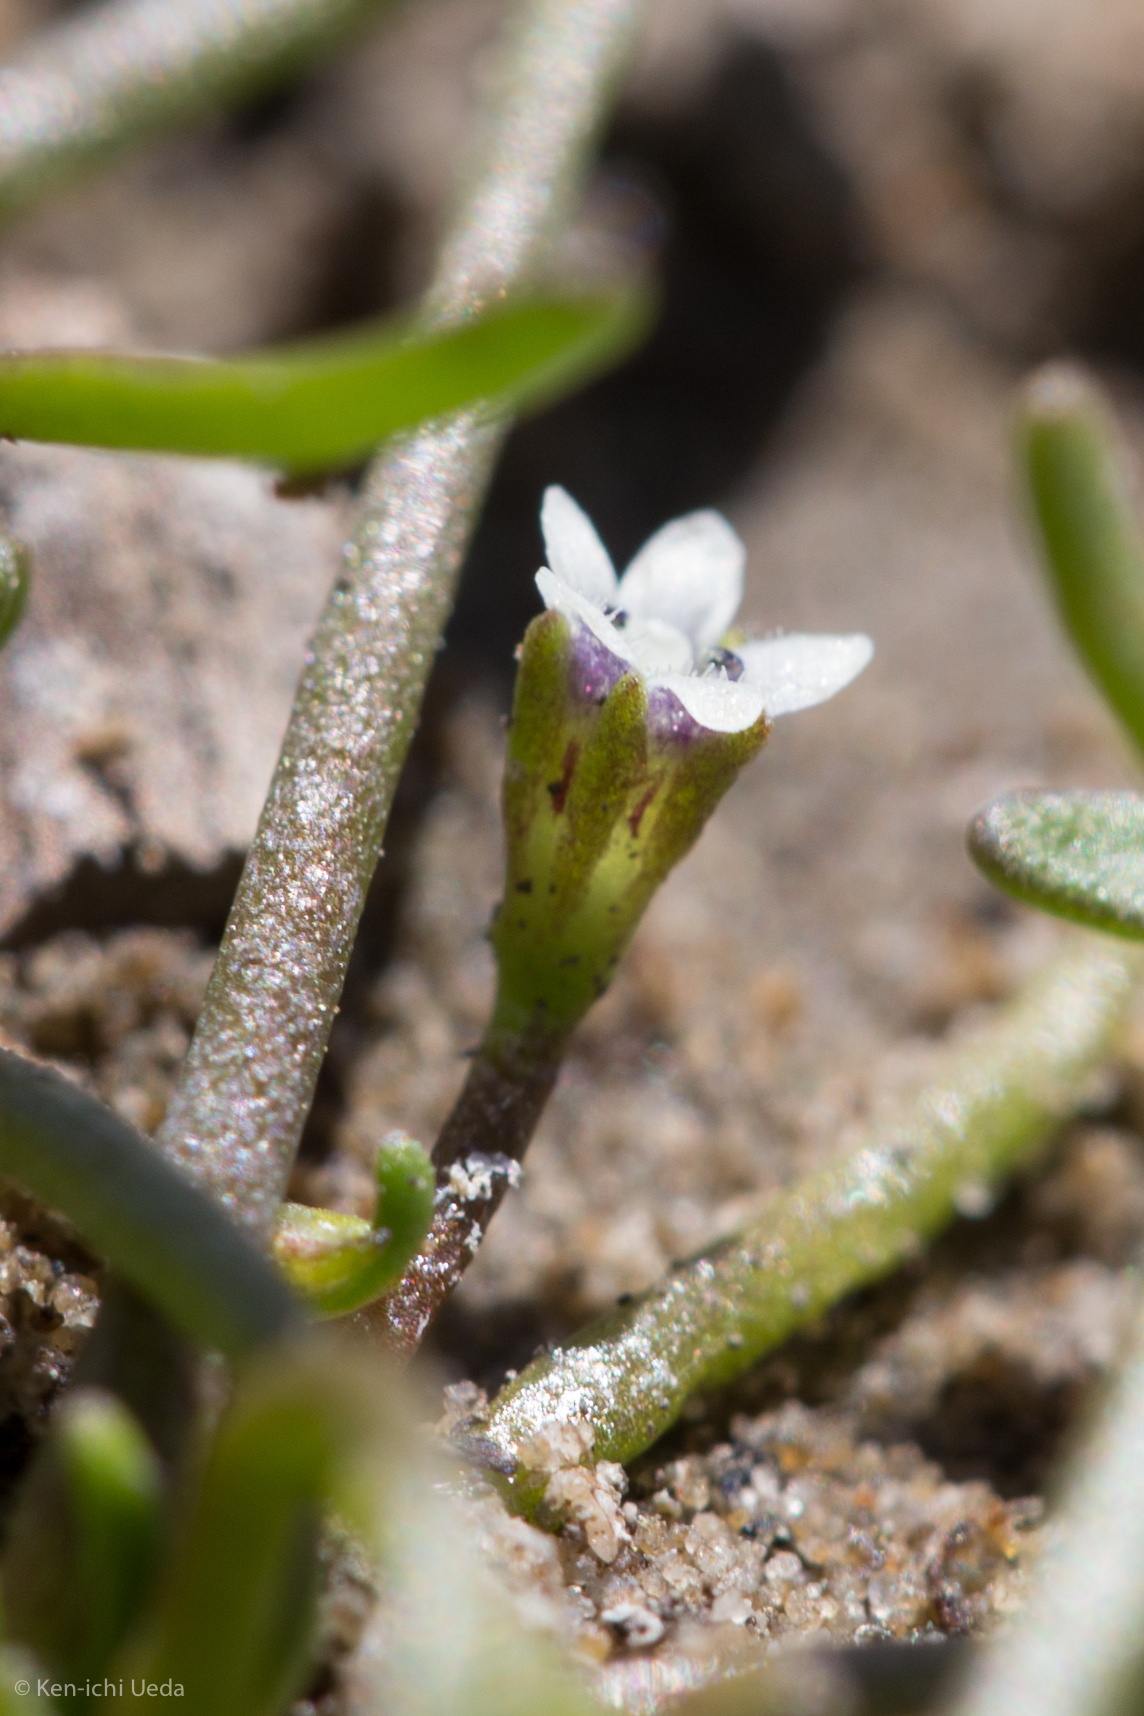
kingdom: Plantae
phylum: Tracheophyta
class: Magnoliopsida
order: Lamiales
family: Scrophulariaceae
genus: Limosella
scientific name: Limosella acaulis
